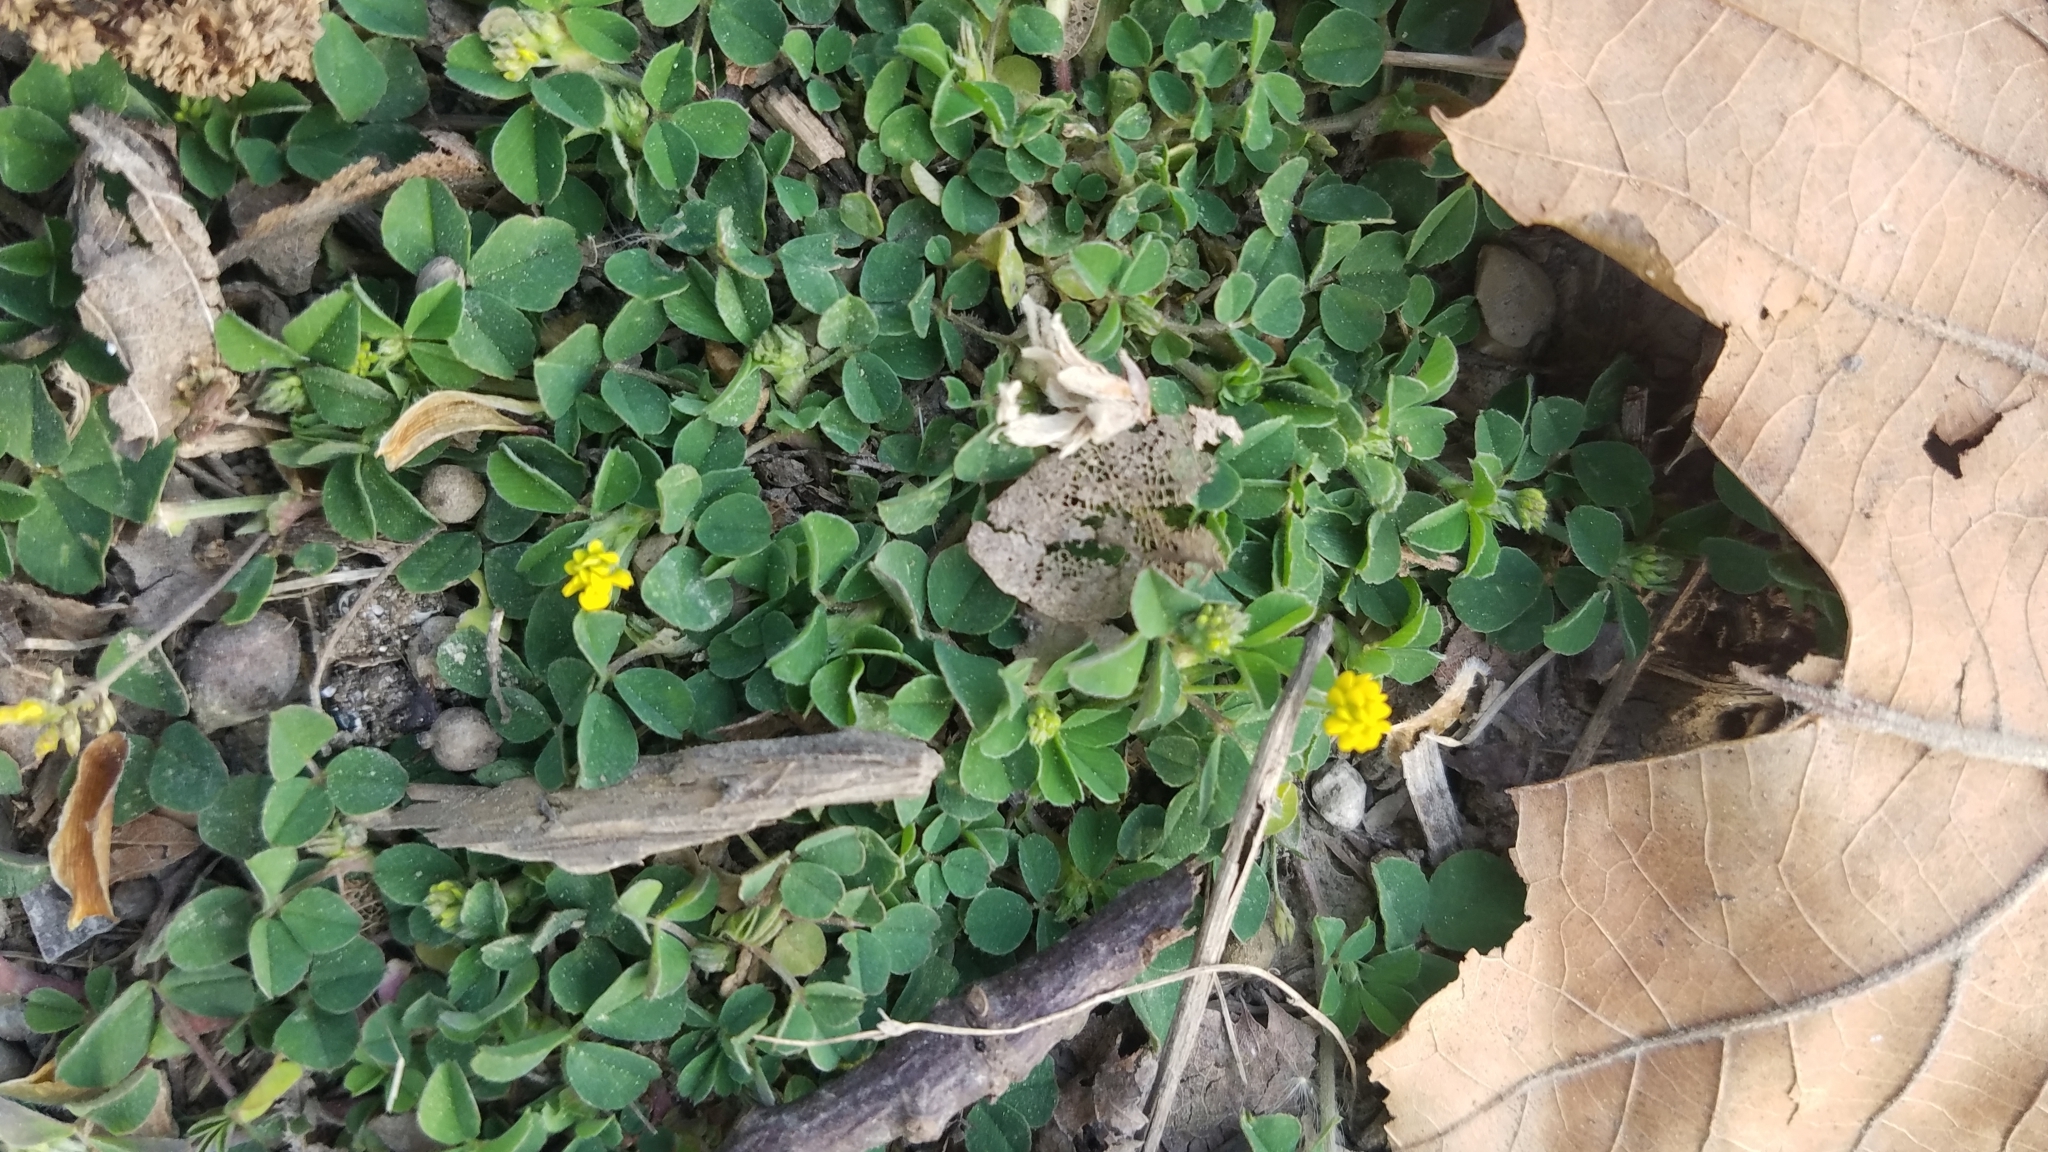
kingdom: Plantae
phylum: Tracheophyta
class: Magnoliopsida
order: Fabales
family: Fabaceae
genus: Medicago
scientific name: Medicago lupulina
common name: Black medick
